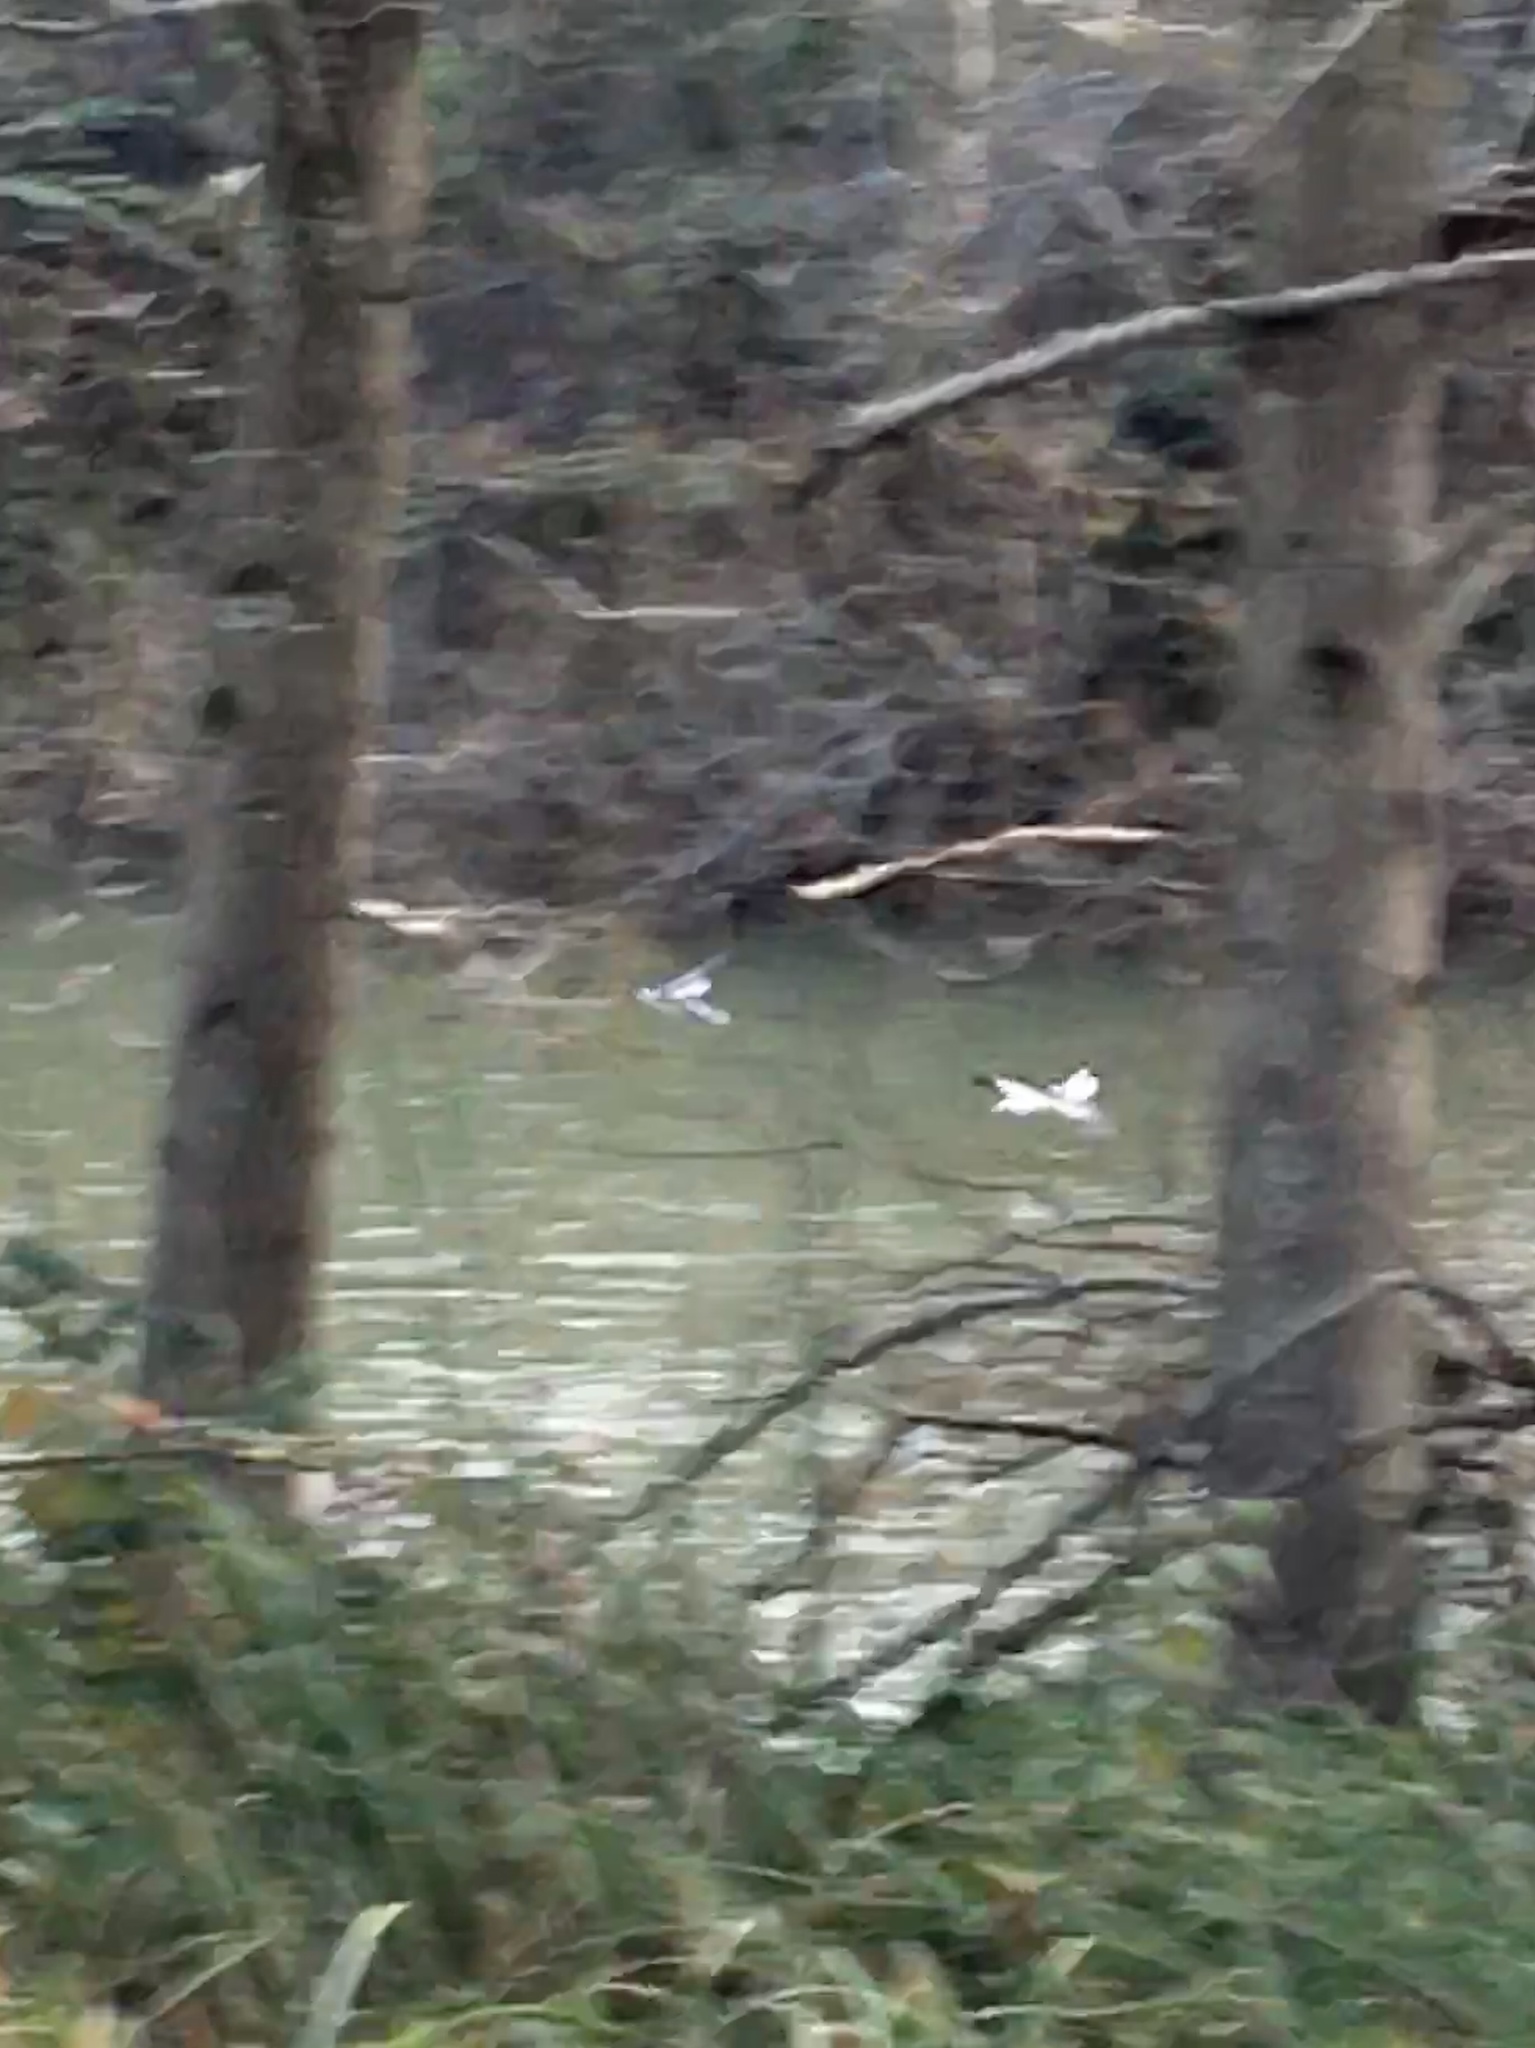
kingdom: Animalia
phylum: Chordata
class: Aves
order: Anseriformes
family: Anatidae
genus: Mergus
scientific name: Mergus merganser
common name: Common merganser
